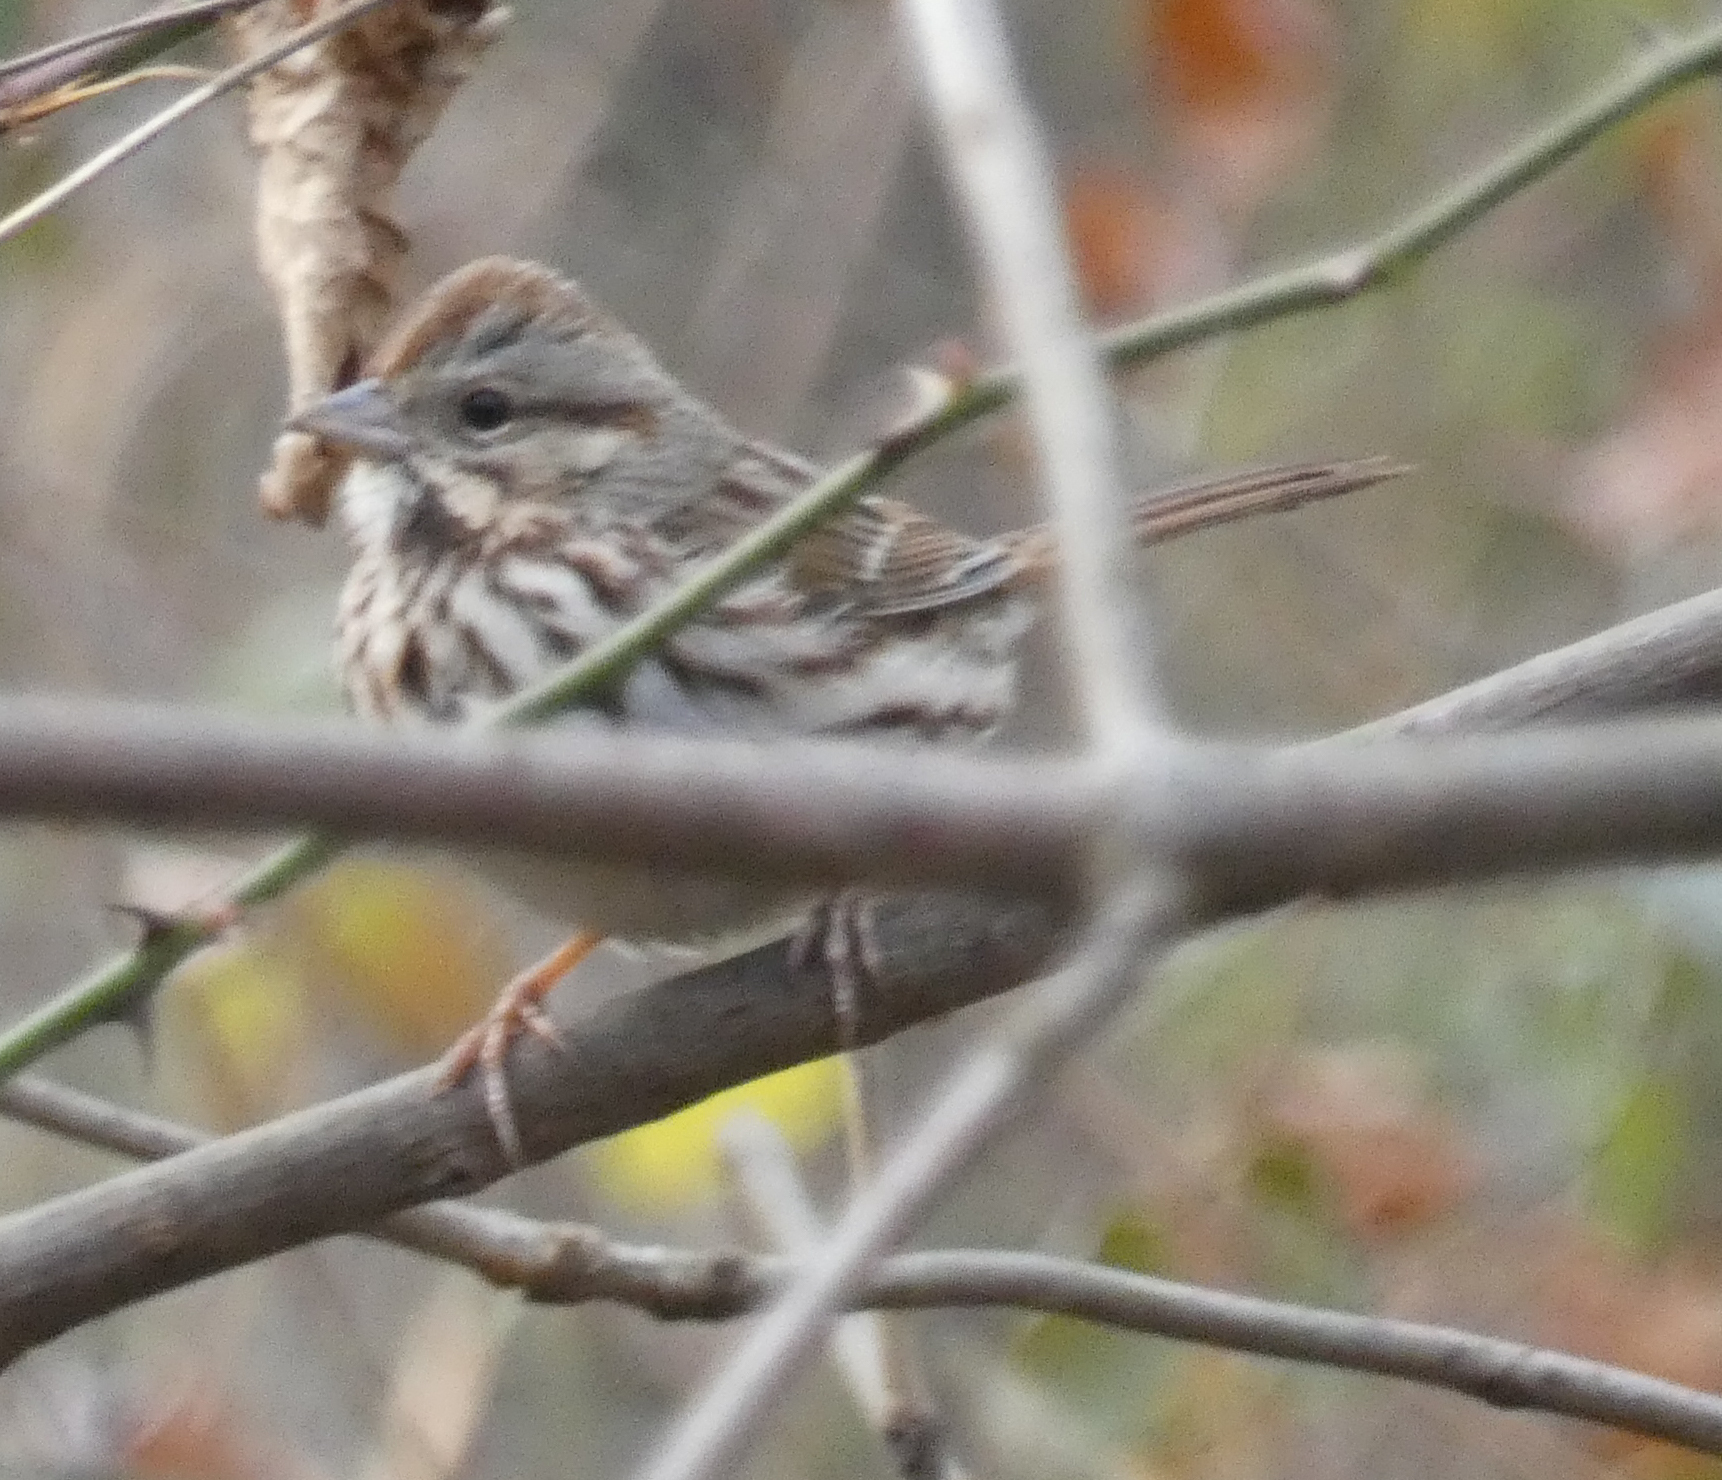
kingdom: Animalia
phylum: Chordata
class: Aves
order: Passeriformes
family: Passerellidae
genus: Melospiza
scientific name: Melospiza melodia
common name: Song sparrow
